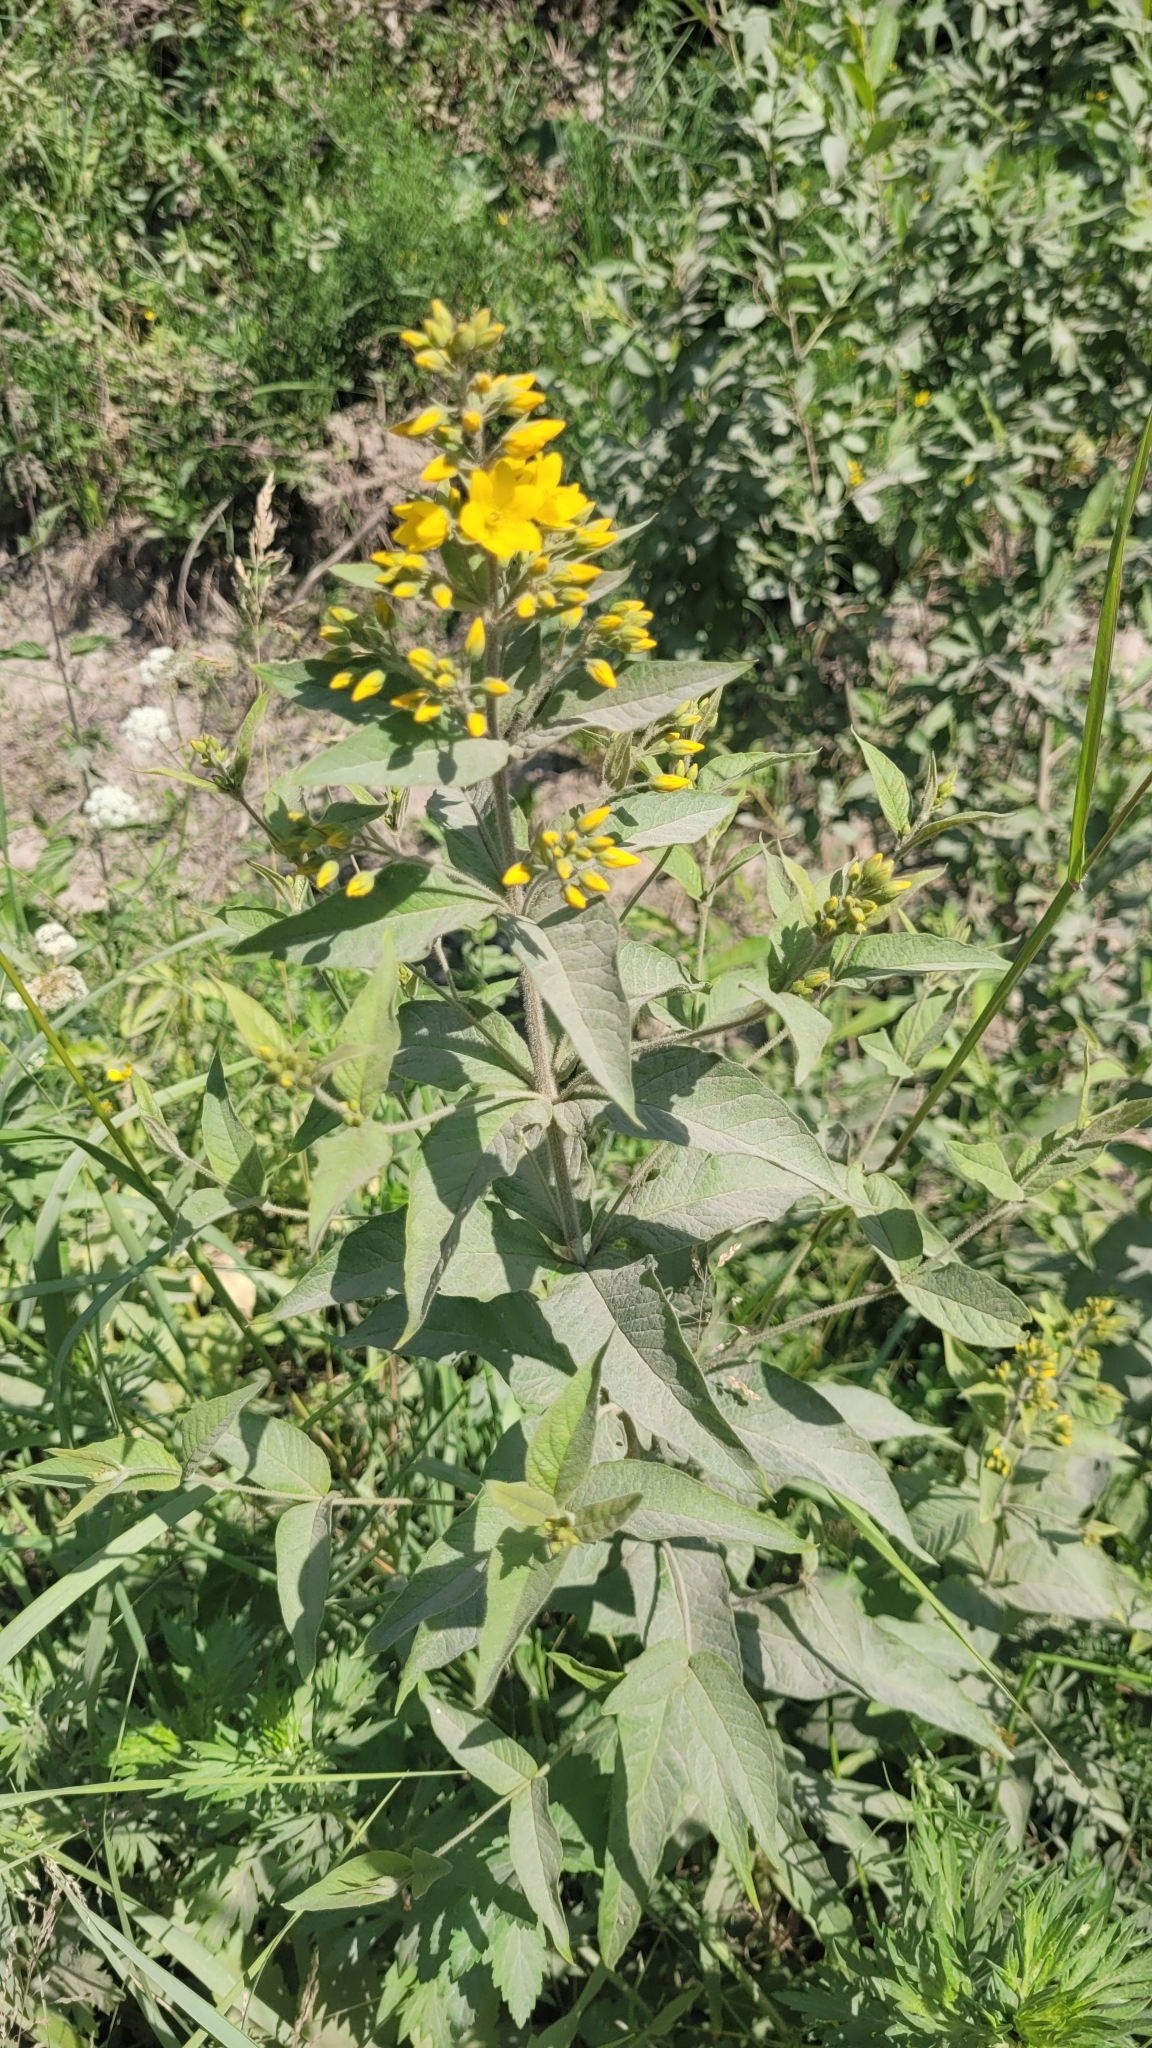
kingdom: Plantae
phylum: Tracheophyta
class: Magnoliopsida
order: Ericales
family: Primulaceae
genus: Lysimachia
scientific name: Lysimachia vulgaris
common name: Yellow loosestrife
